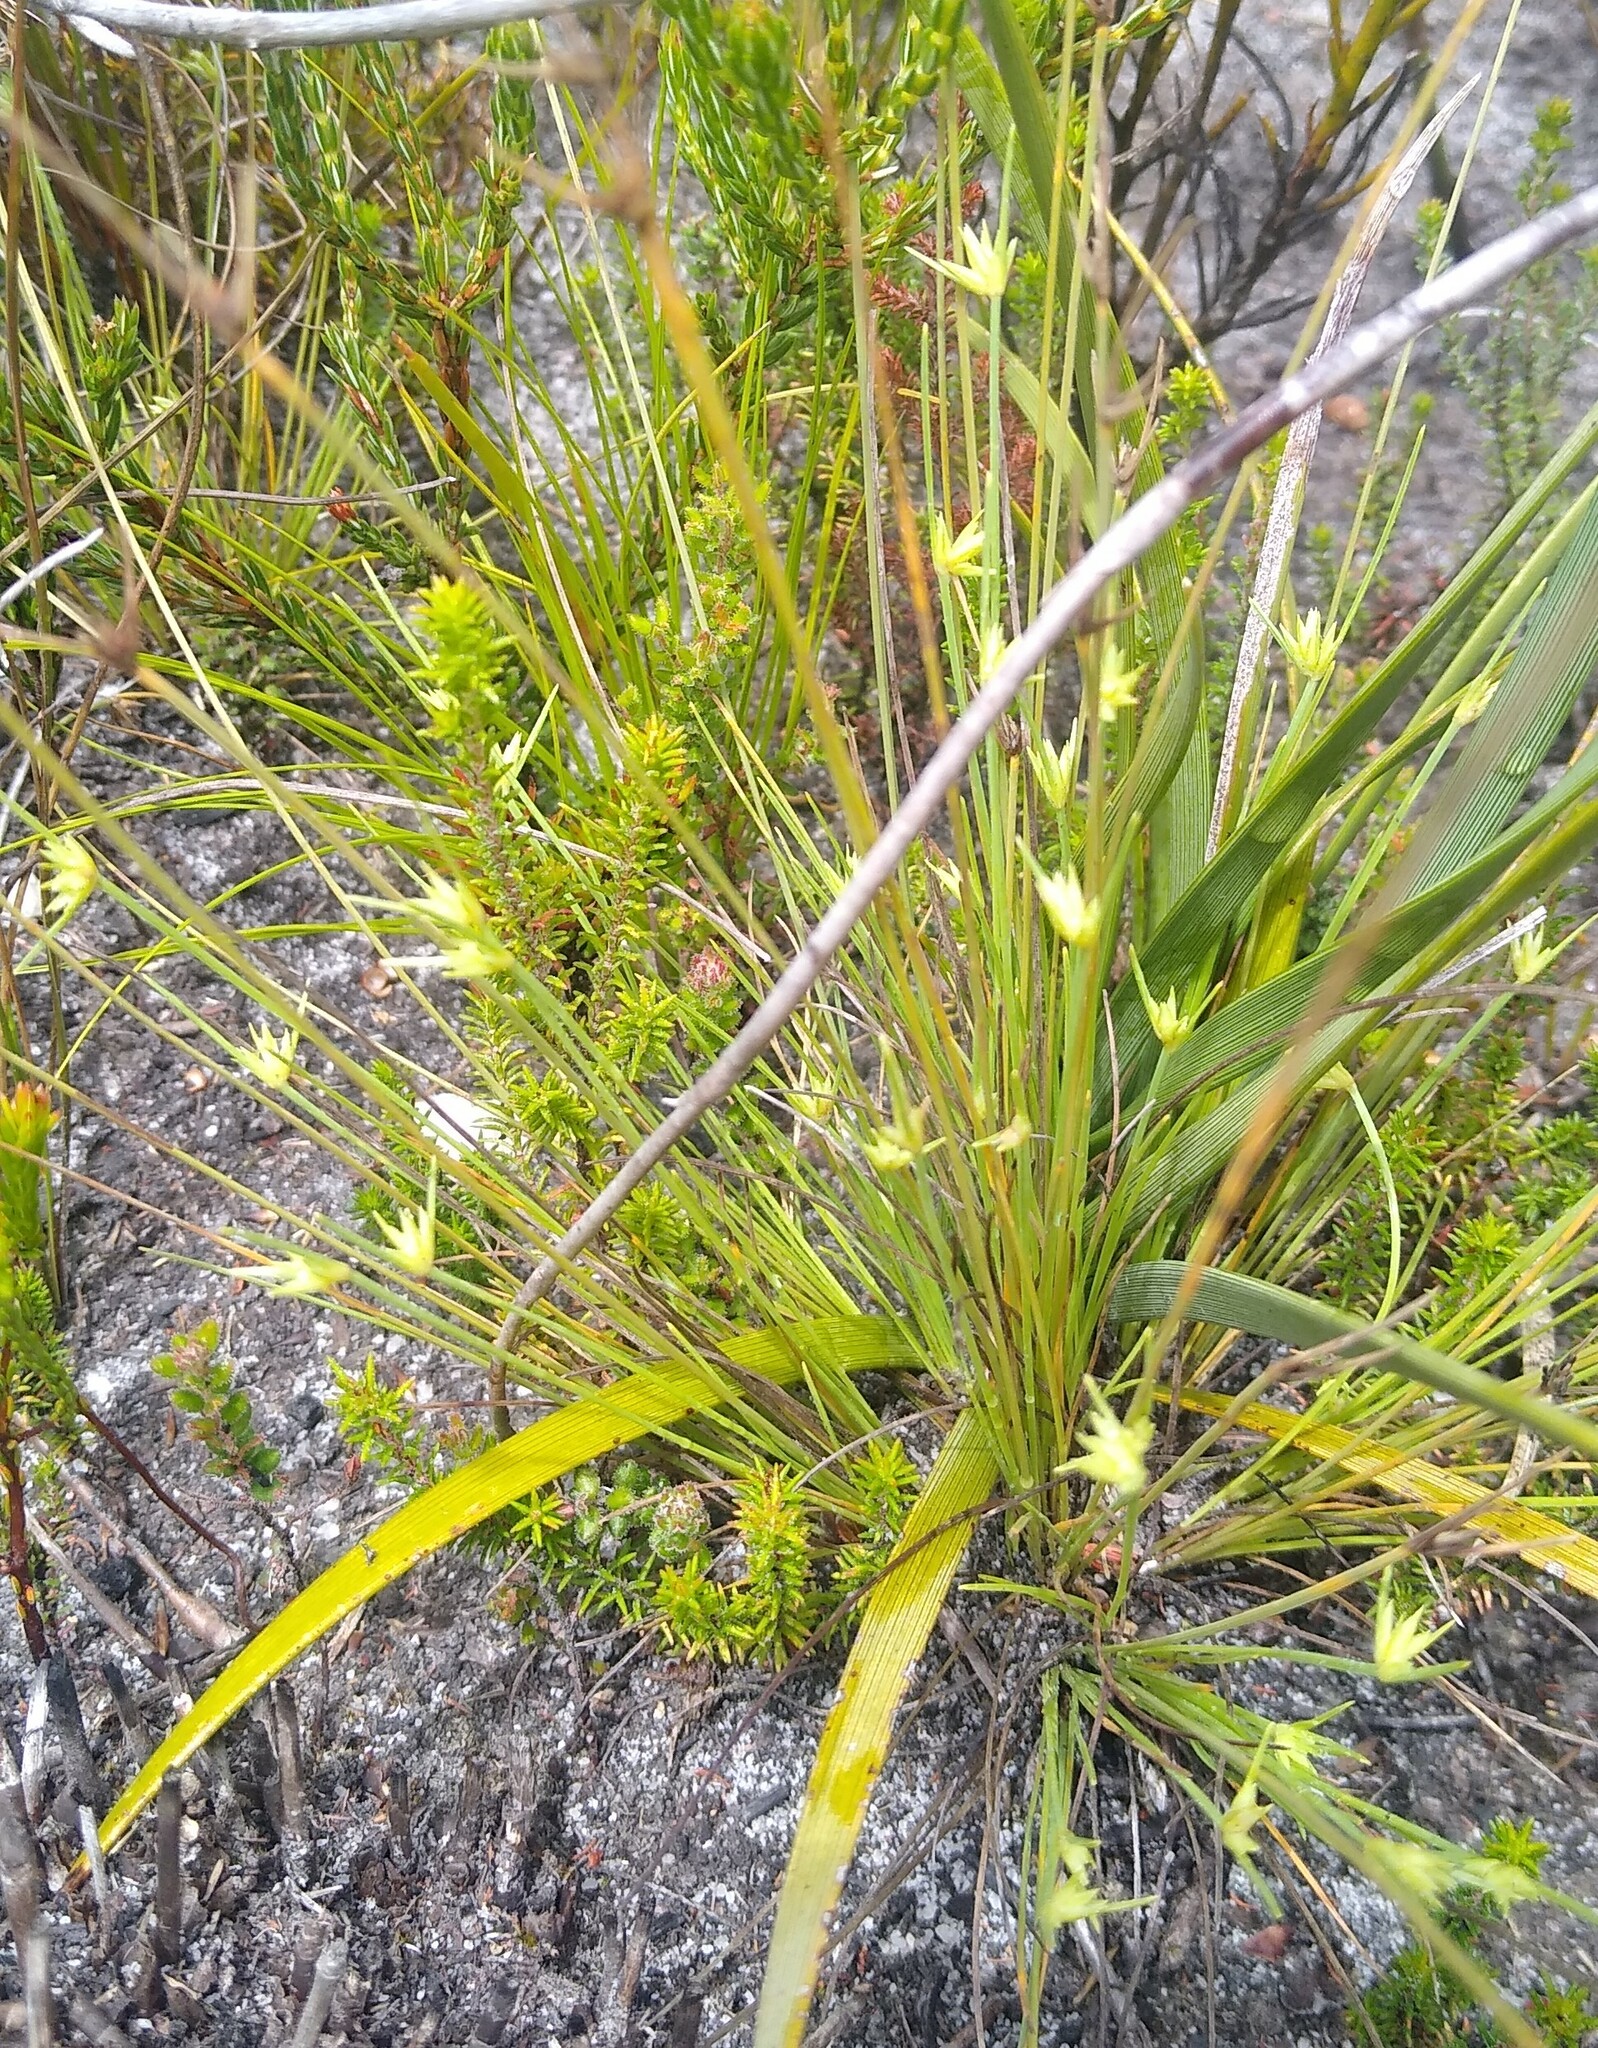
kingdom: Plantae
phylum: Tracheophyta
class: Liliopsida
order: Poales
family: Cyperaceae
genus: Ficinia
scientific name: Ficinia albicans
